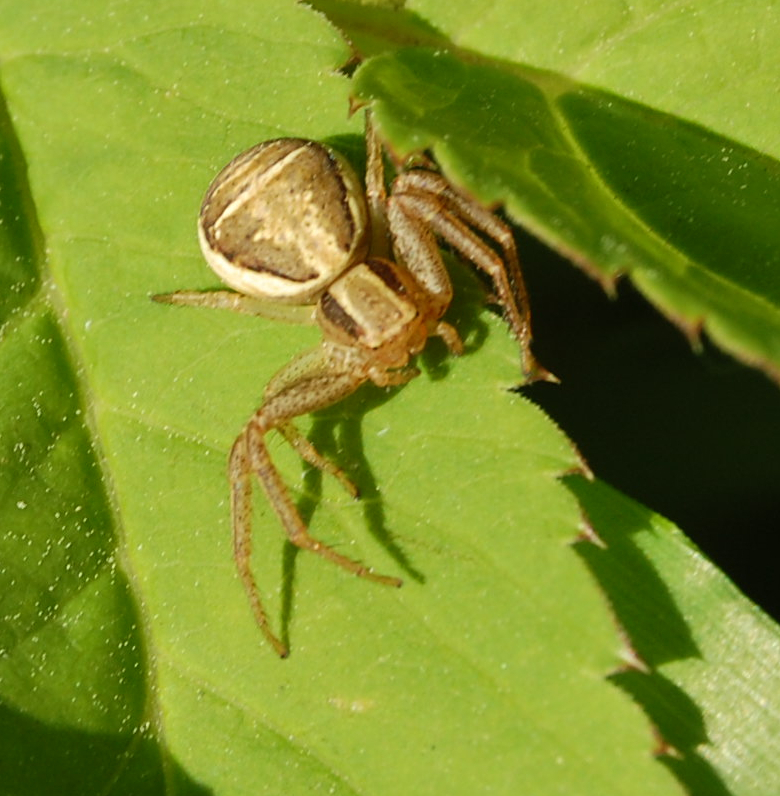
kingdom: Animalia
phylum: Arthropoda
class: Arachnida
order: Araneae
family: Thomisidae
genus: Xysticus
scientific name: Xysticus ulmi
